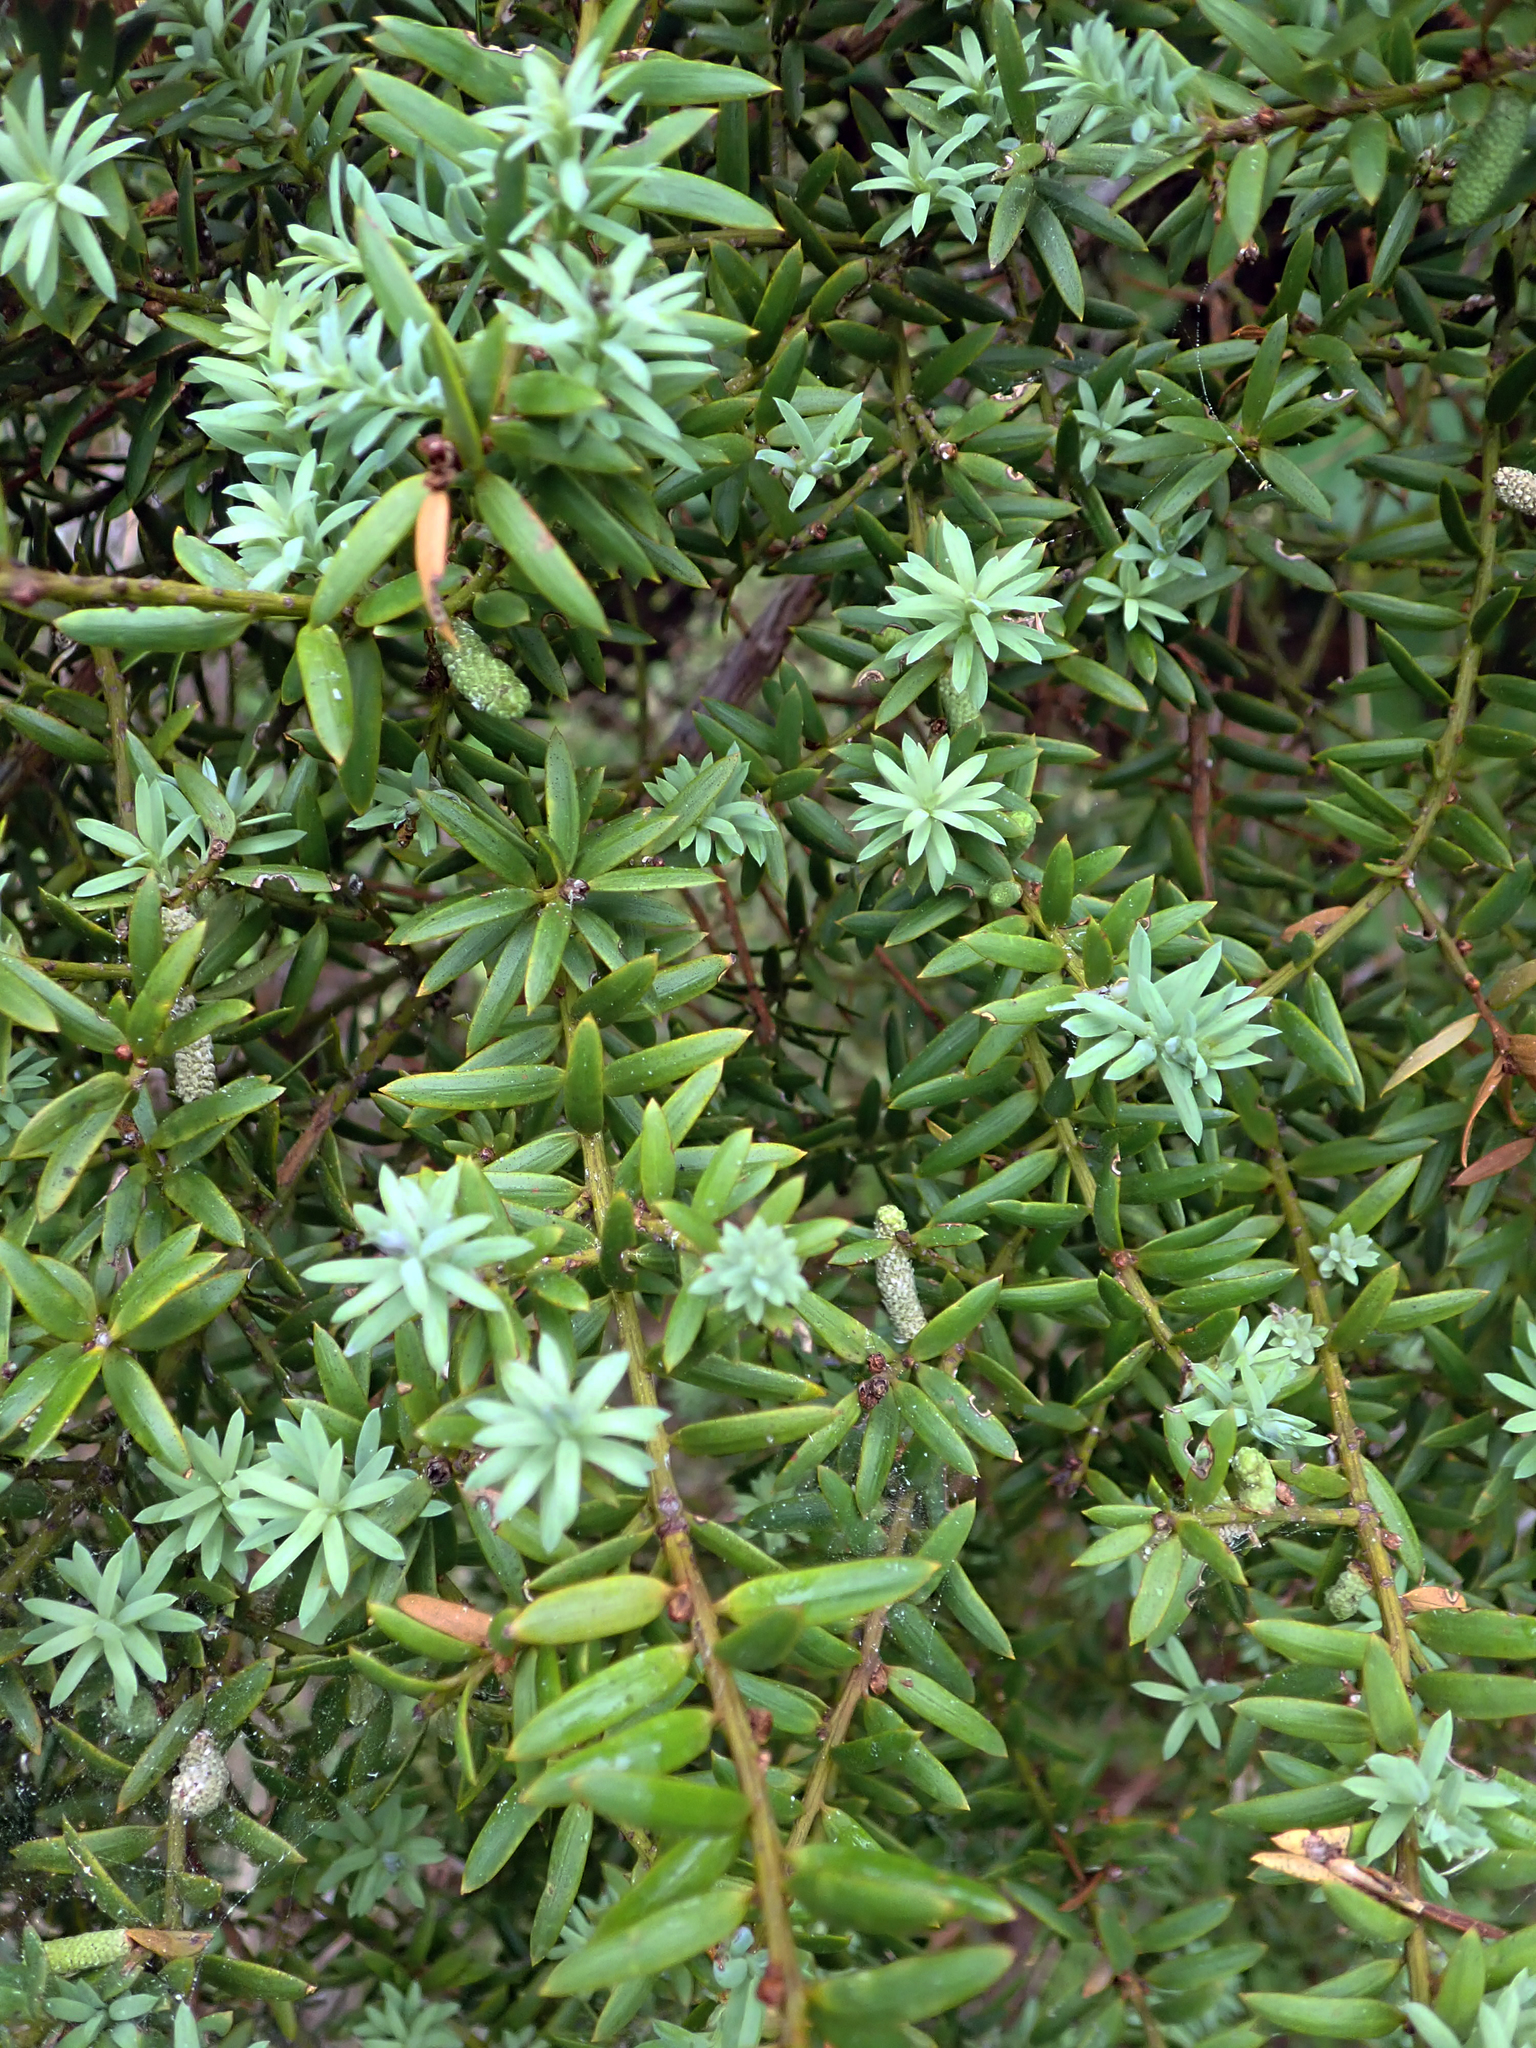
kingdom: Plantae
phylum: Tracheophyta
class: Pinopsida
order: Pinales
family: Podocarpaceae
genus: Podocarpus
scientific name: Podocarpus totara
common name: Totara
